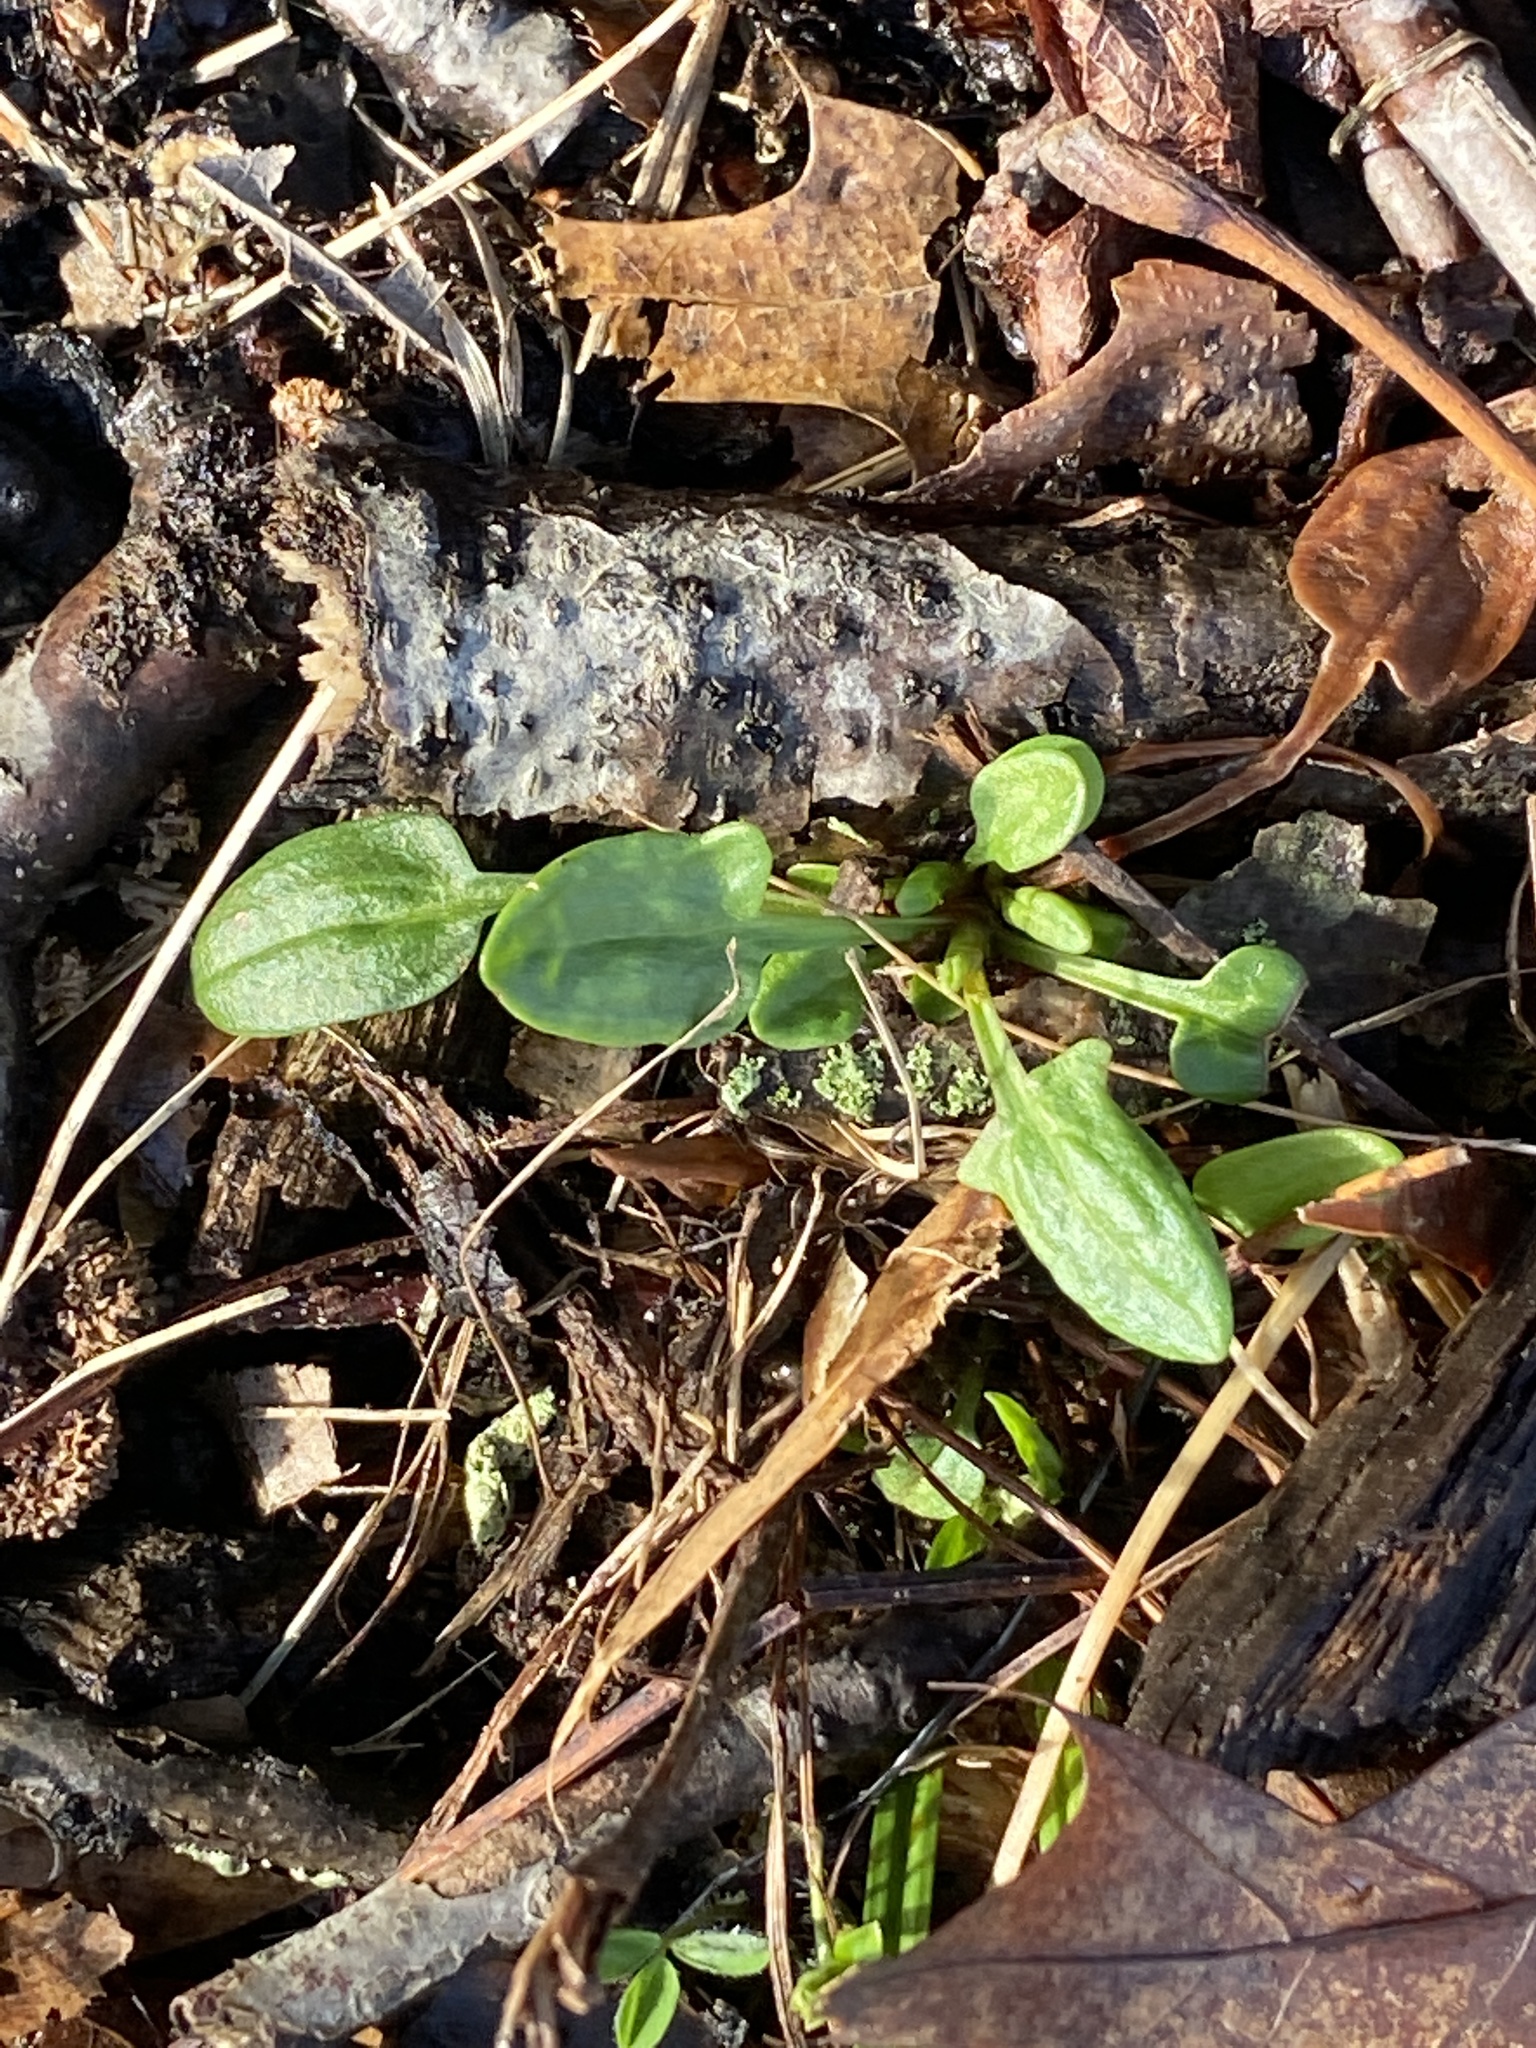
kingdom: Plantae
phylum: Tracheophyta
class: Magnoliopsida
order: Caryophyllales
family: Polygonaceae
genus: Rumex
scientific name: Rumex acetosella
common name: Common sheep sorrel
